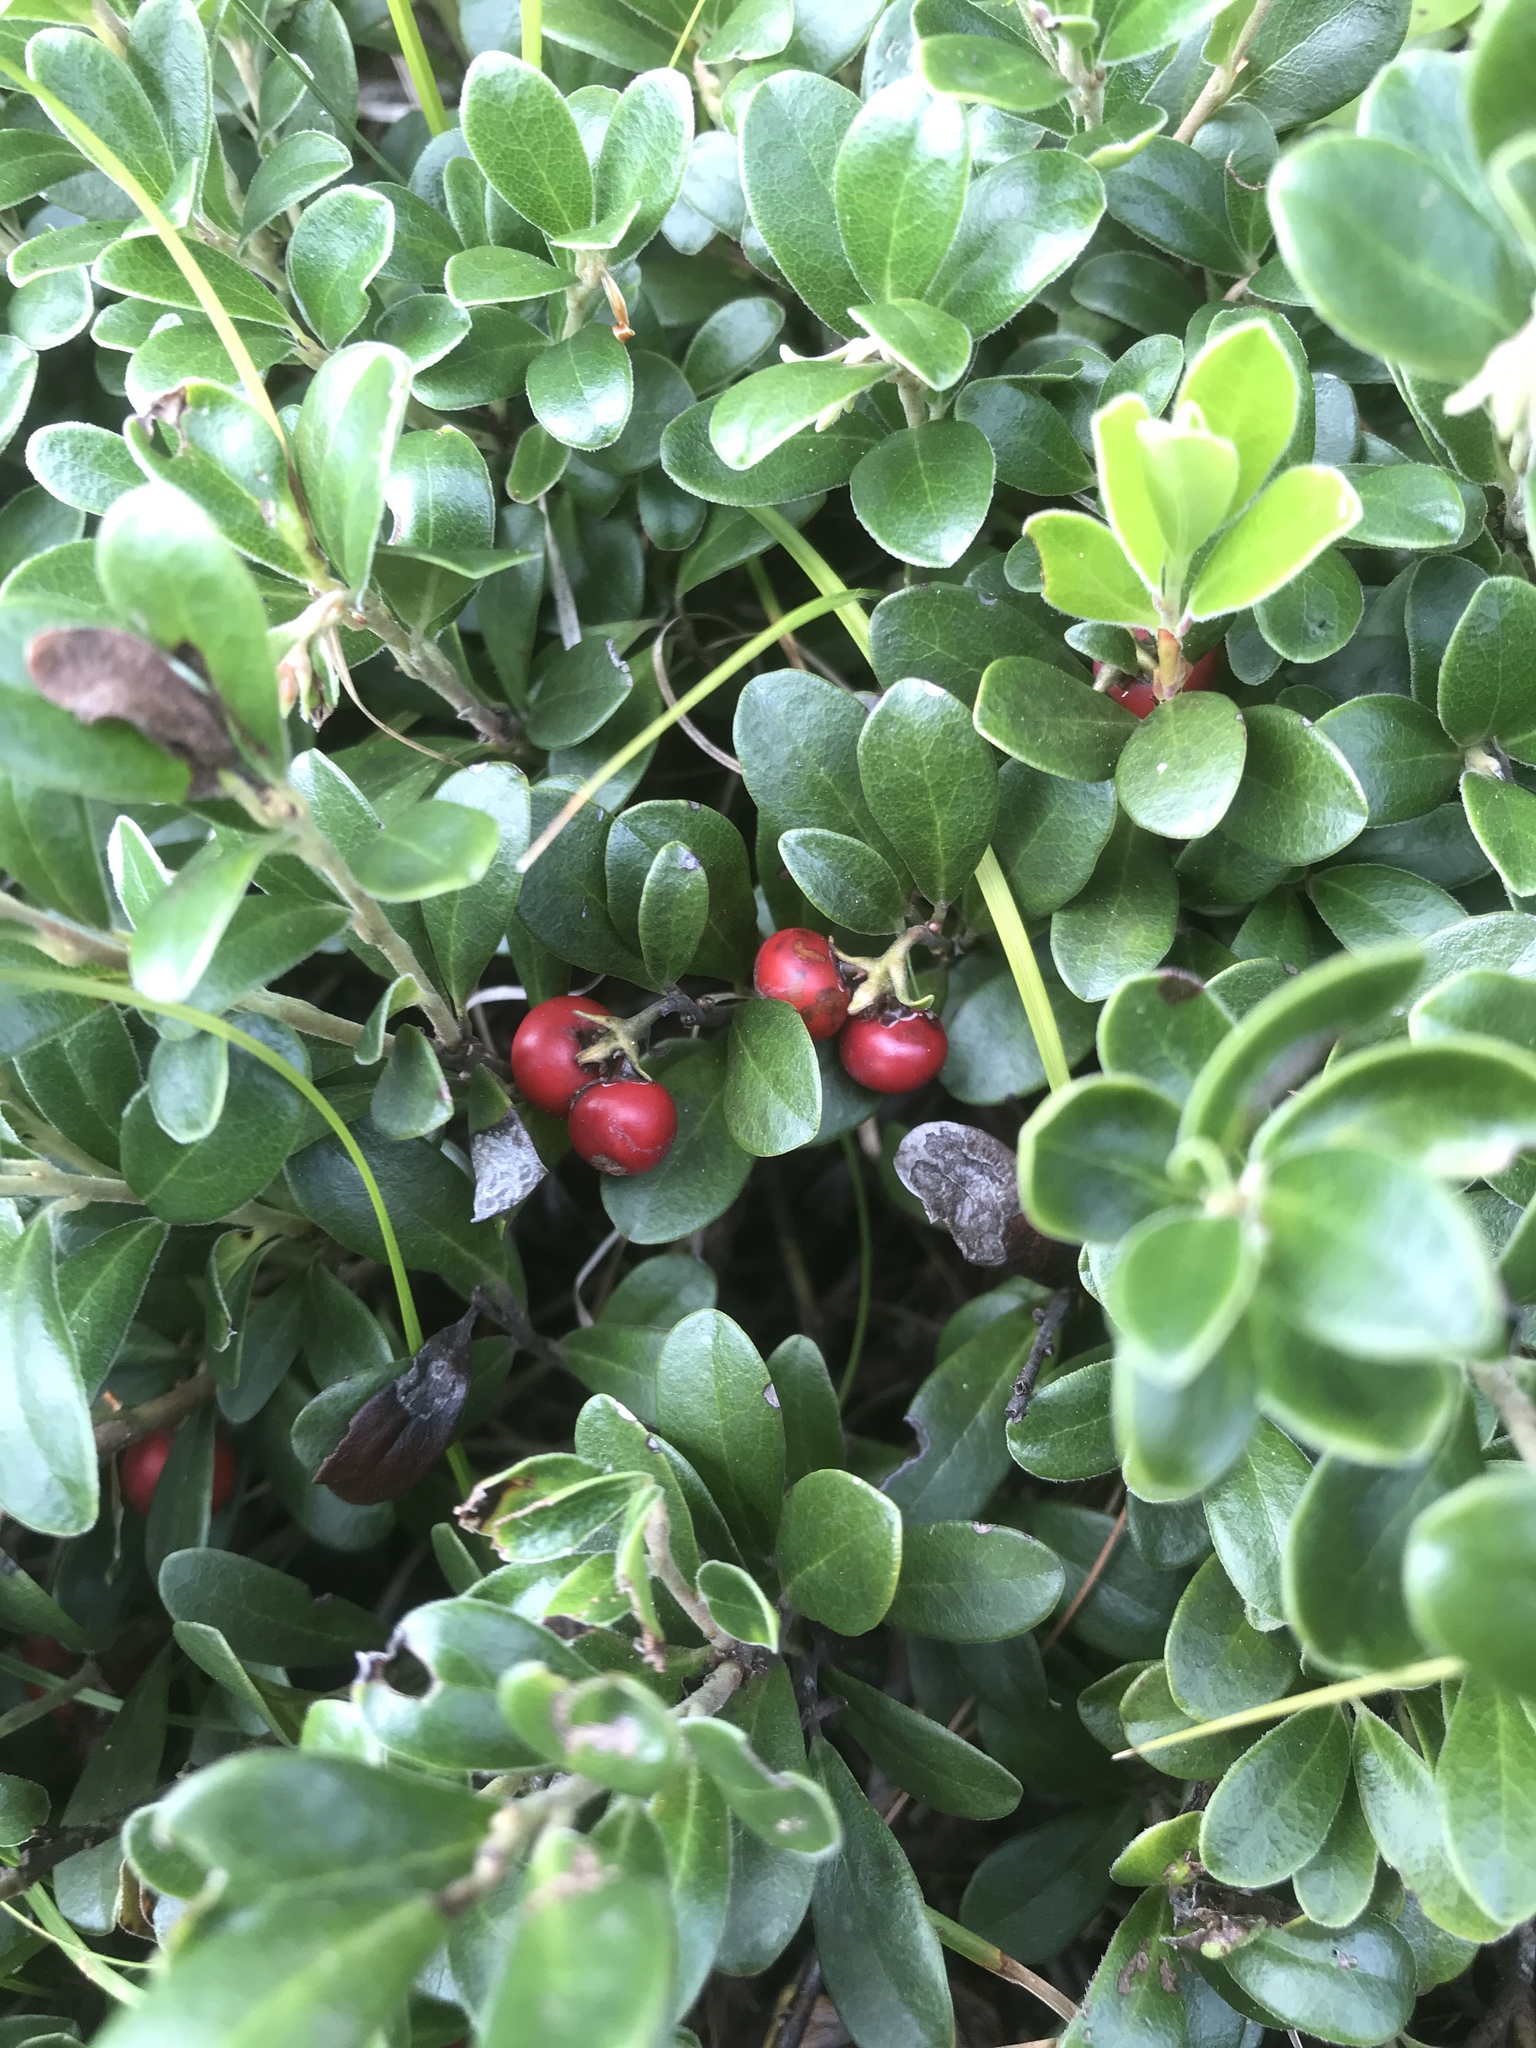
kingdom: Plantae
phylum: Tracheophyta
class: Magnoliopsida
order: Ericales
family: Ericaceae
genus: Arctostaphylos
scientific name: Arctostaphylos uva-ursi
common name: Bearberry
